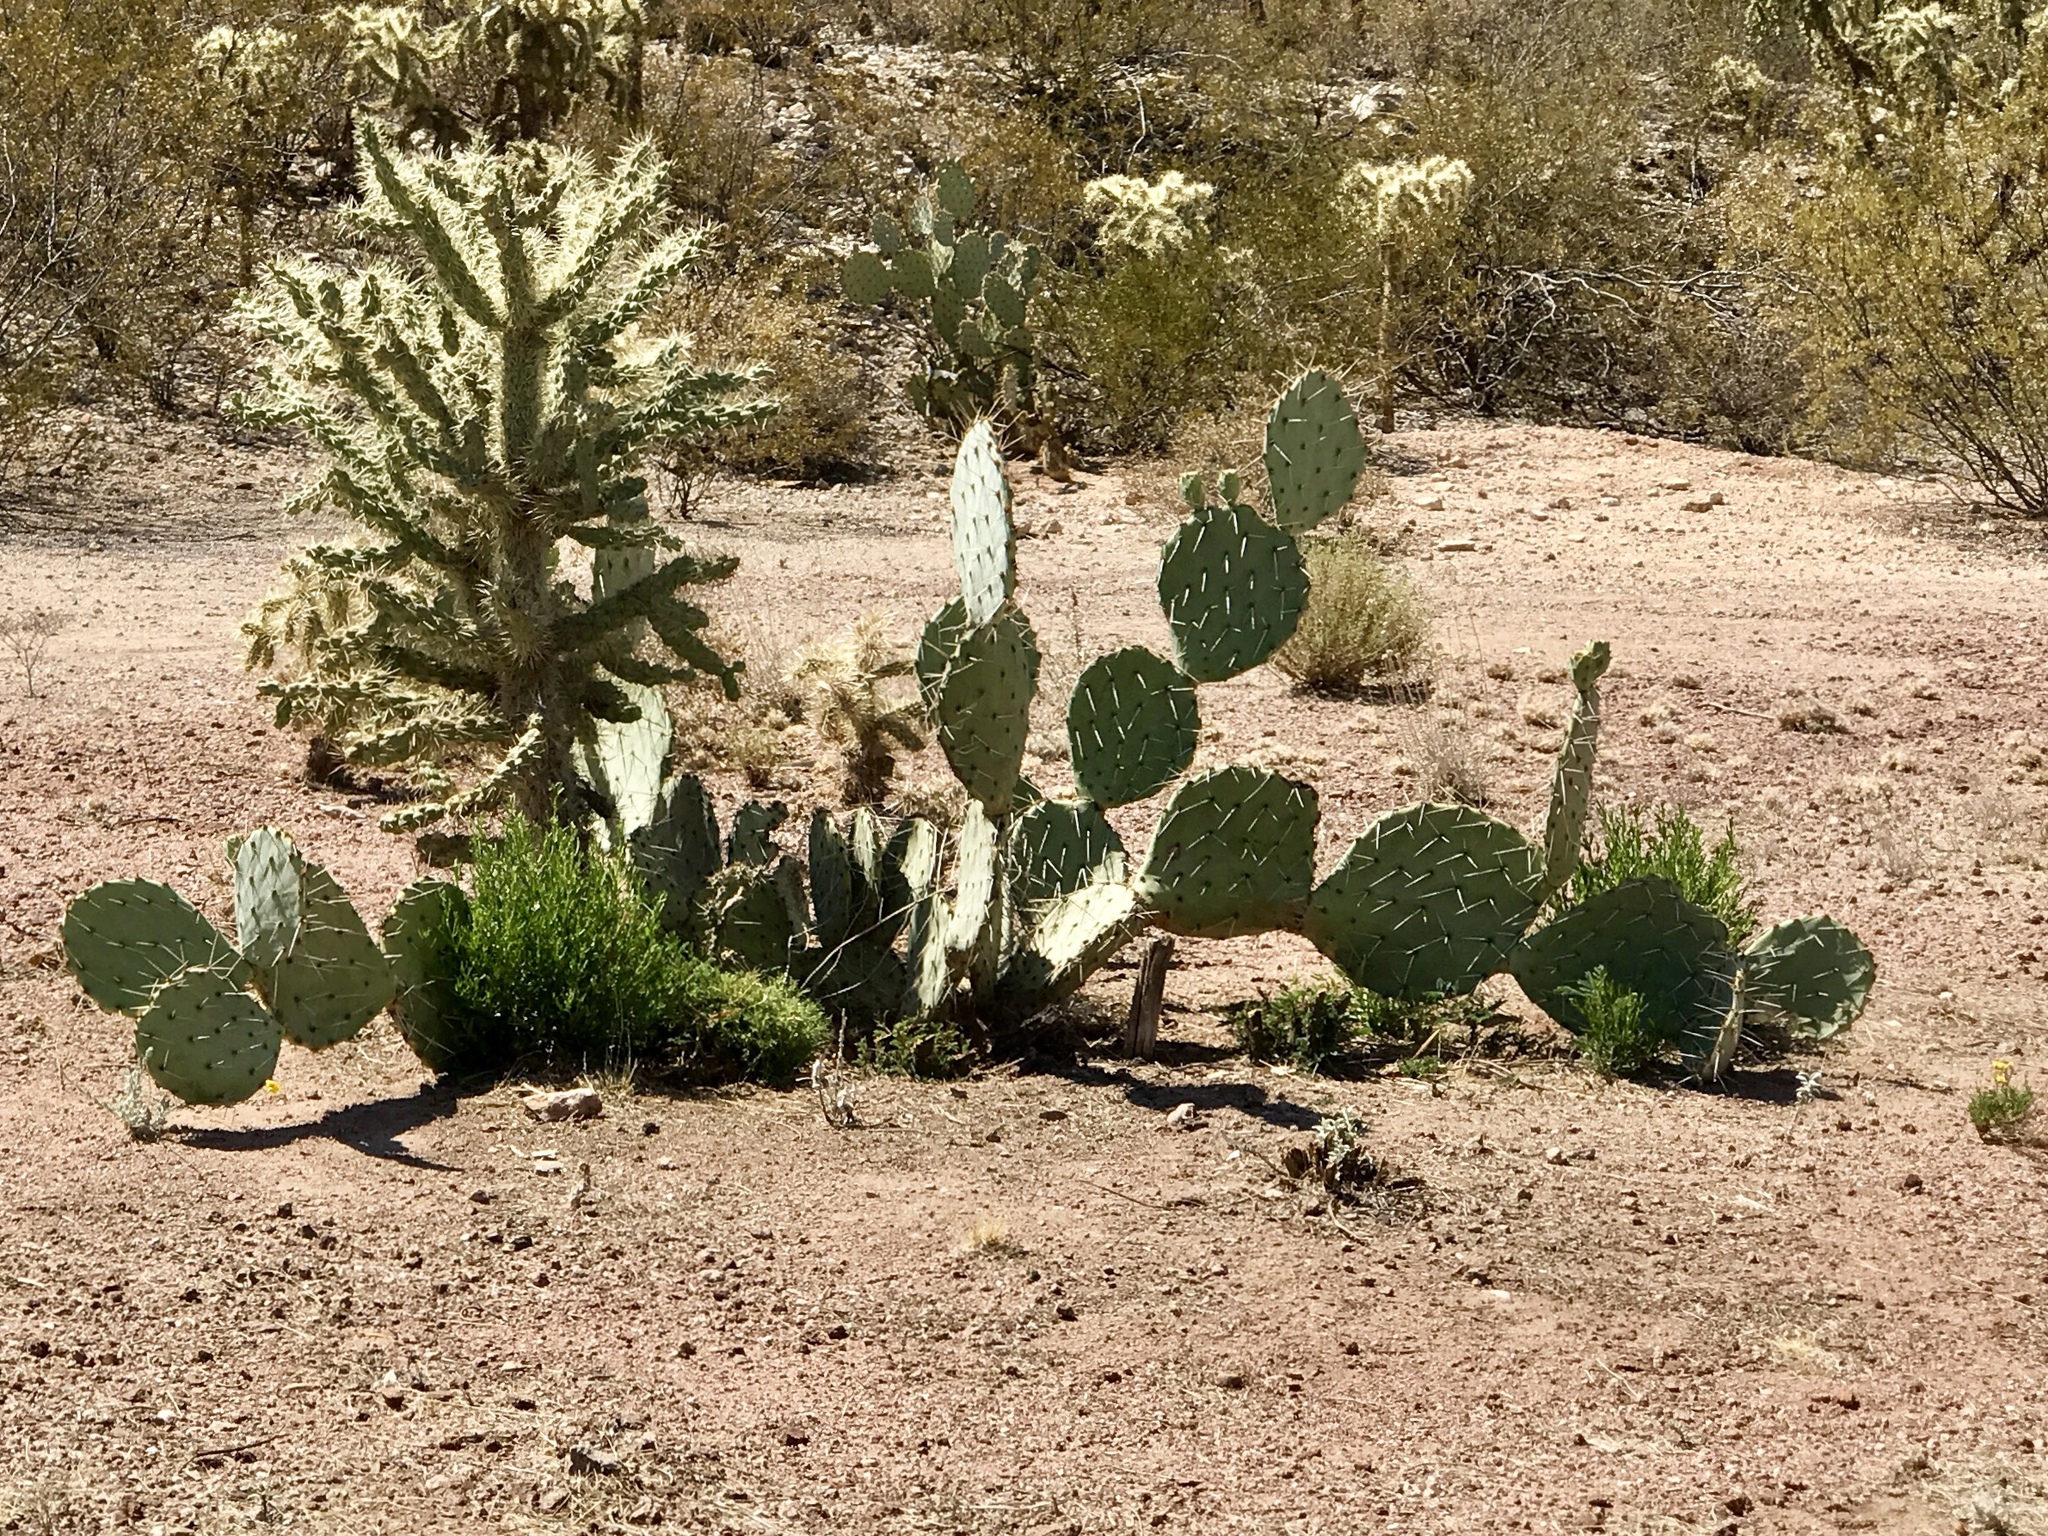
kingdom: Plantae
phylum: Tracheophyta
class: Magnoliopsida
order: Caryophyllales
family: Cactaceae
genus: Opuntia
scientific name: Opuntia engelmannii
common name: Cactus-apple
